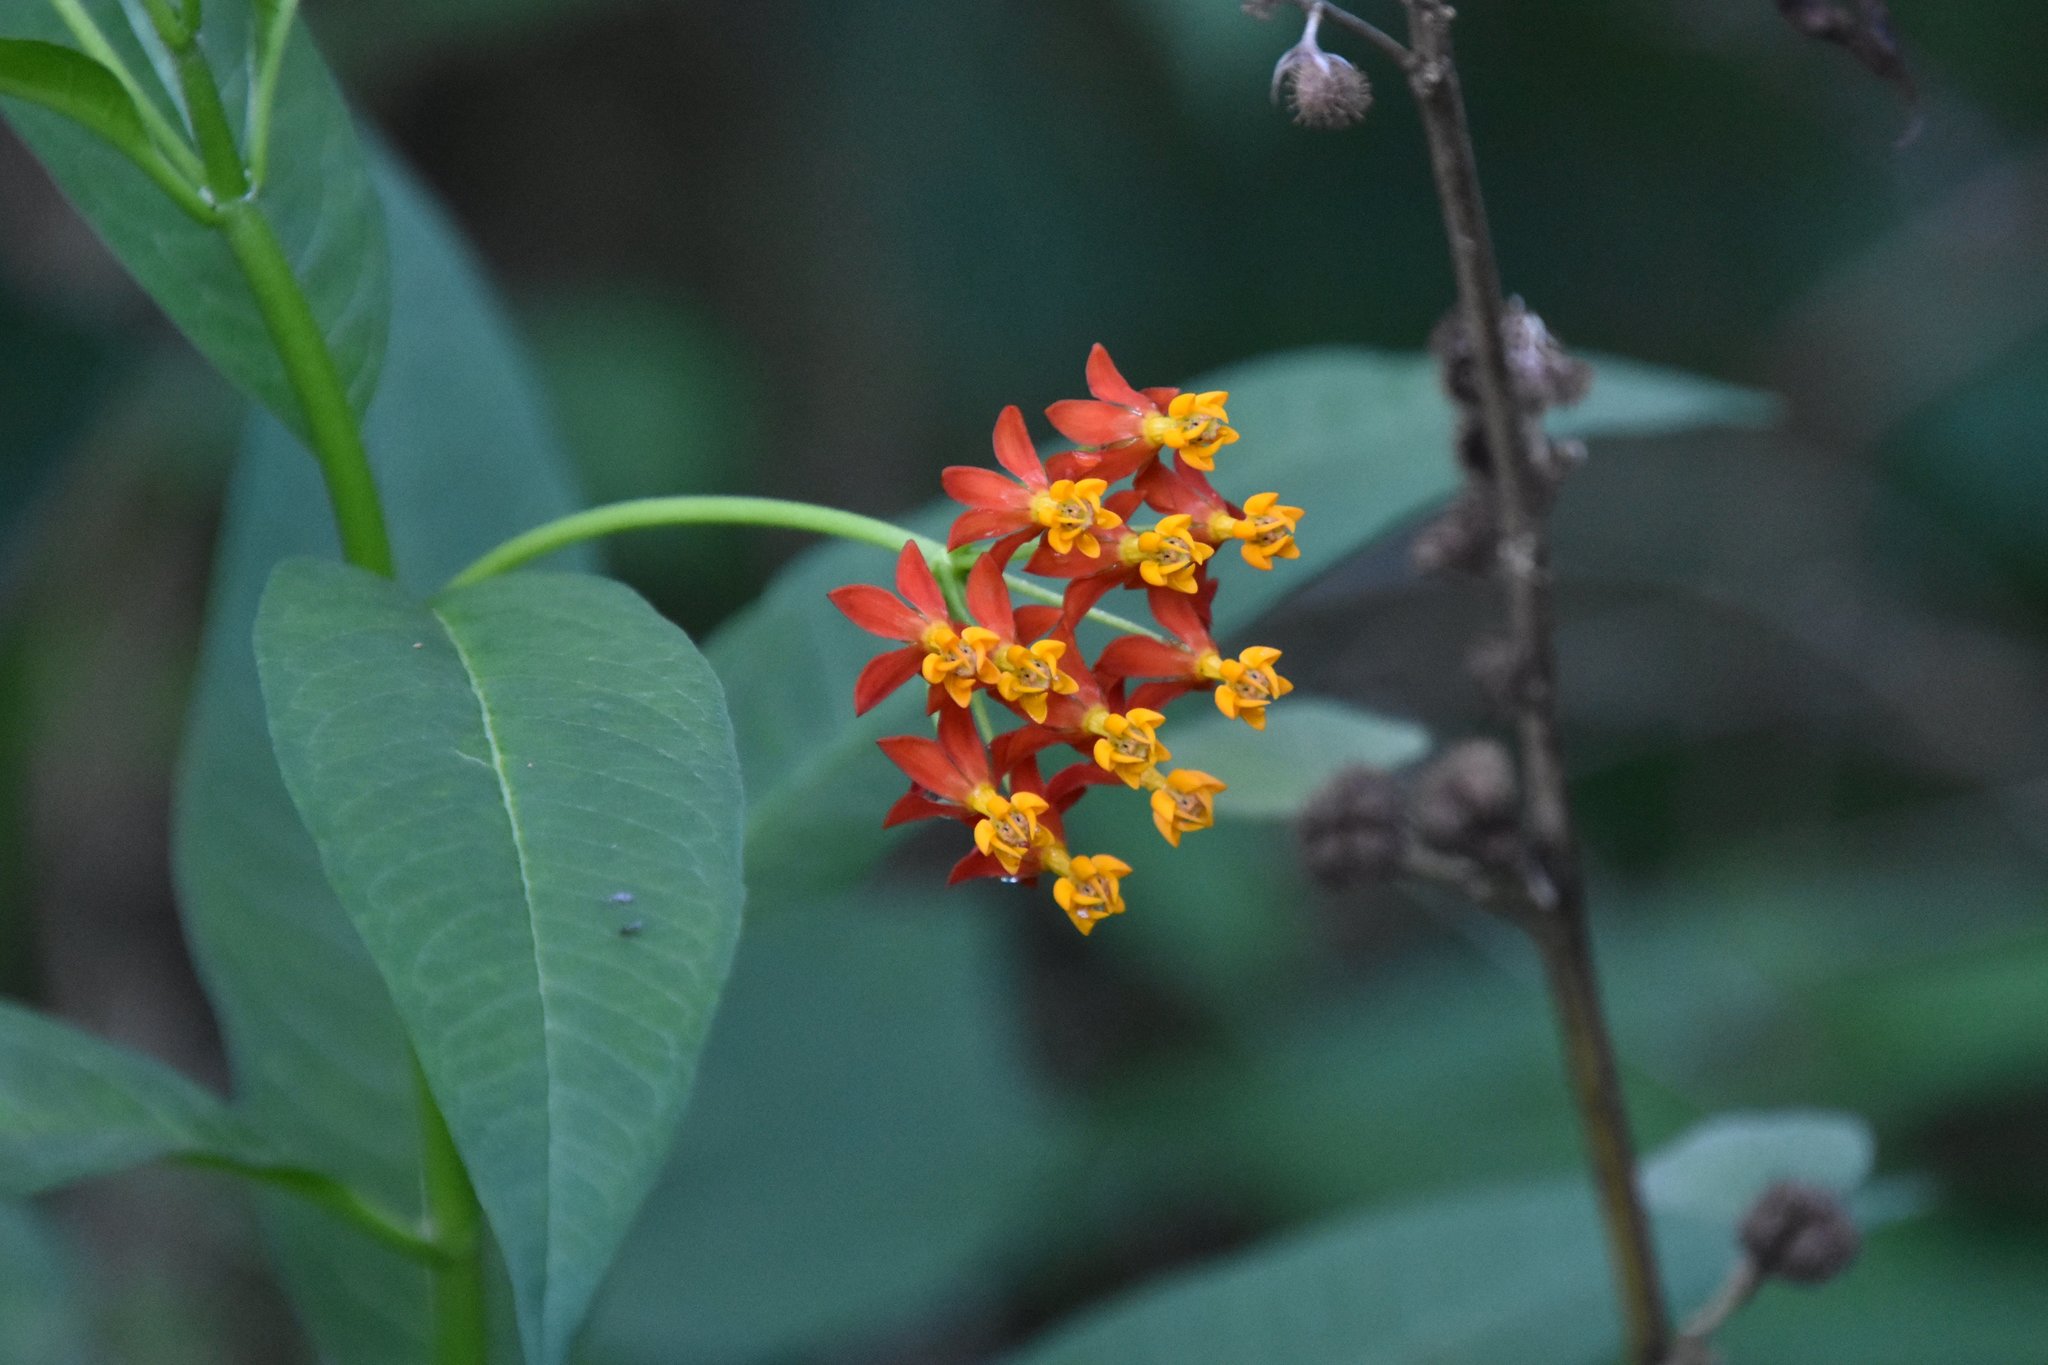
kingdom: Plantae
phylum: Tracheophyta
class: Magnoliopsida
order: Gentianales
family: Apocynaceae
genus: Asclepias
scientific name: Asclepias curassavica
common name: Bloodflower
